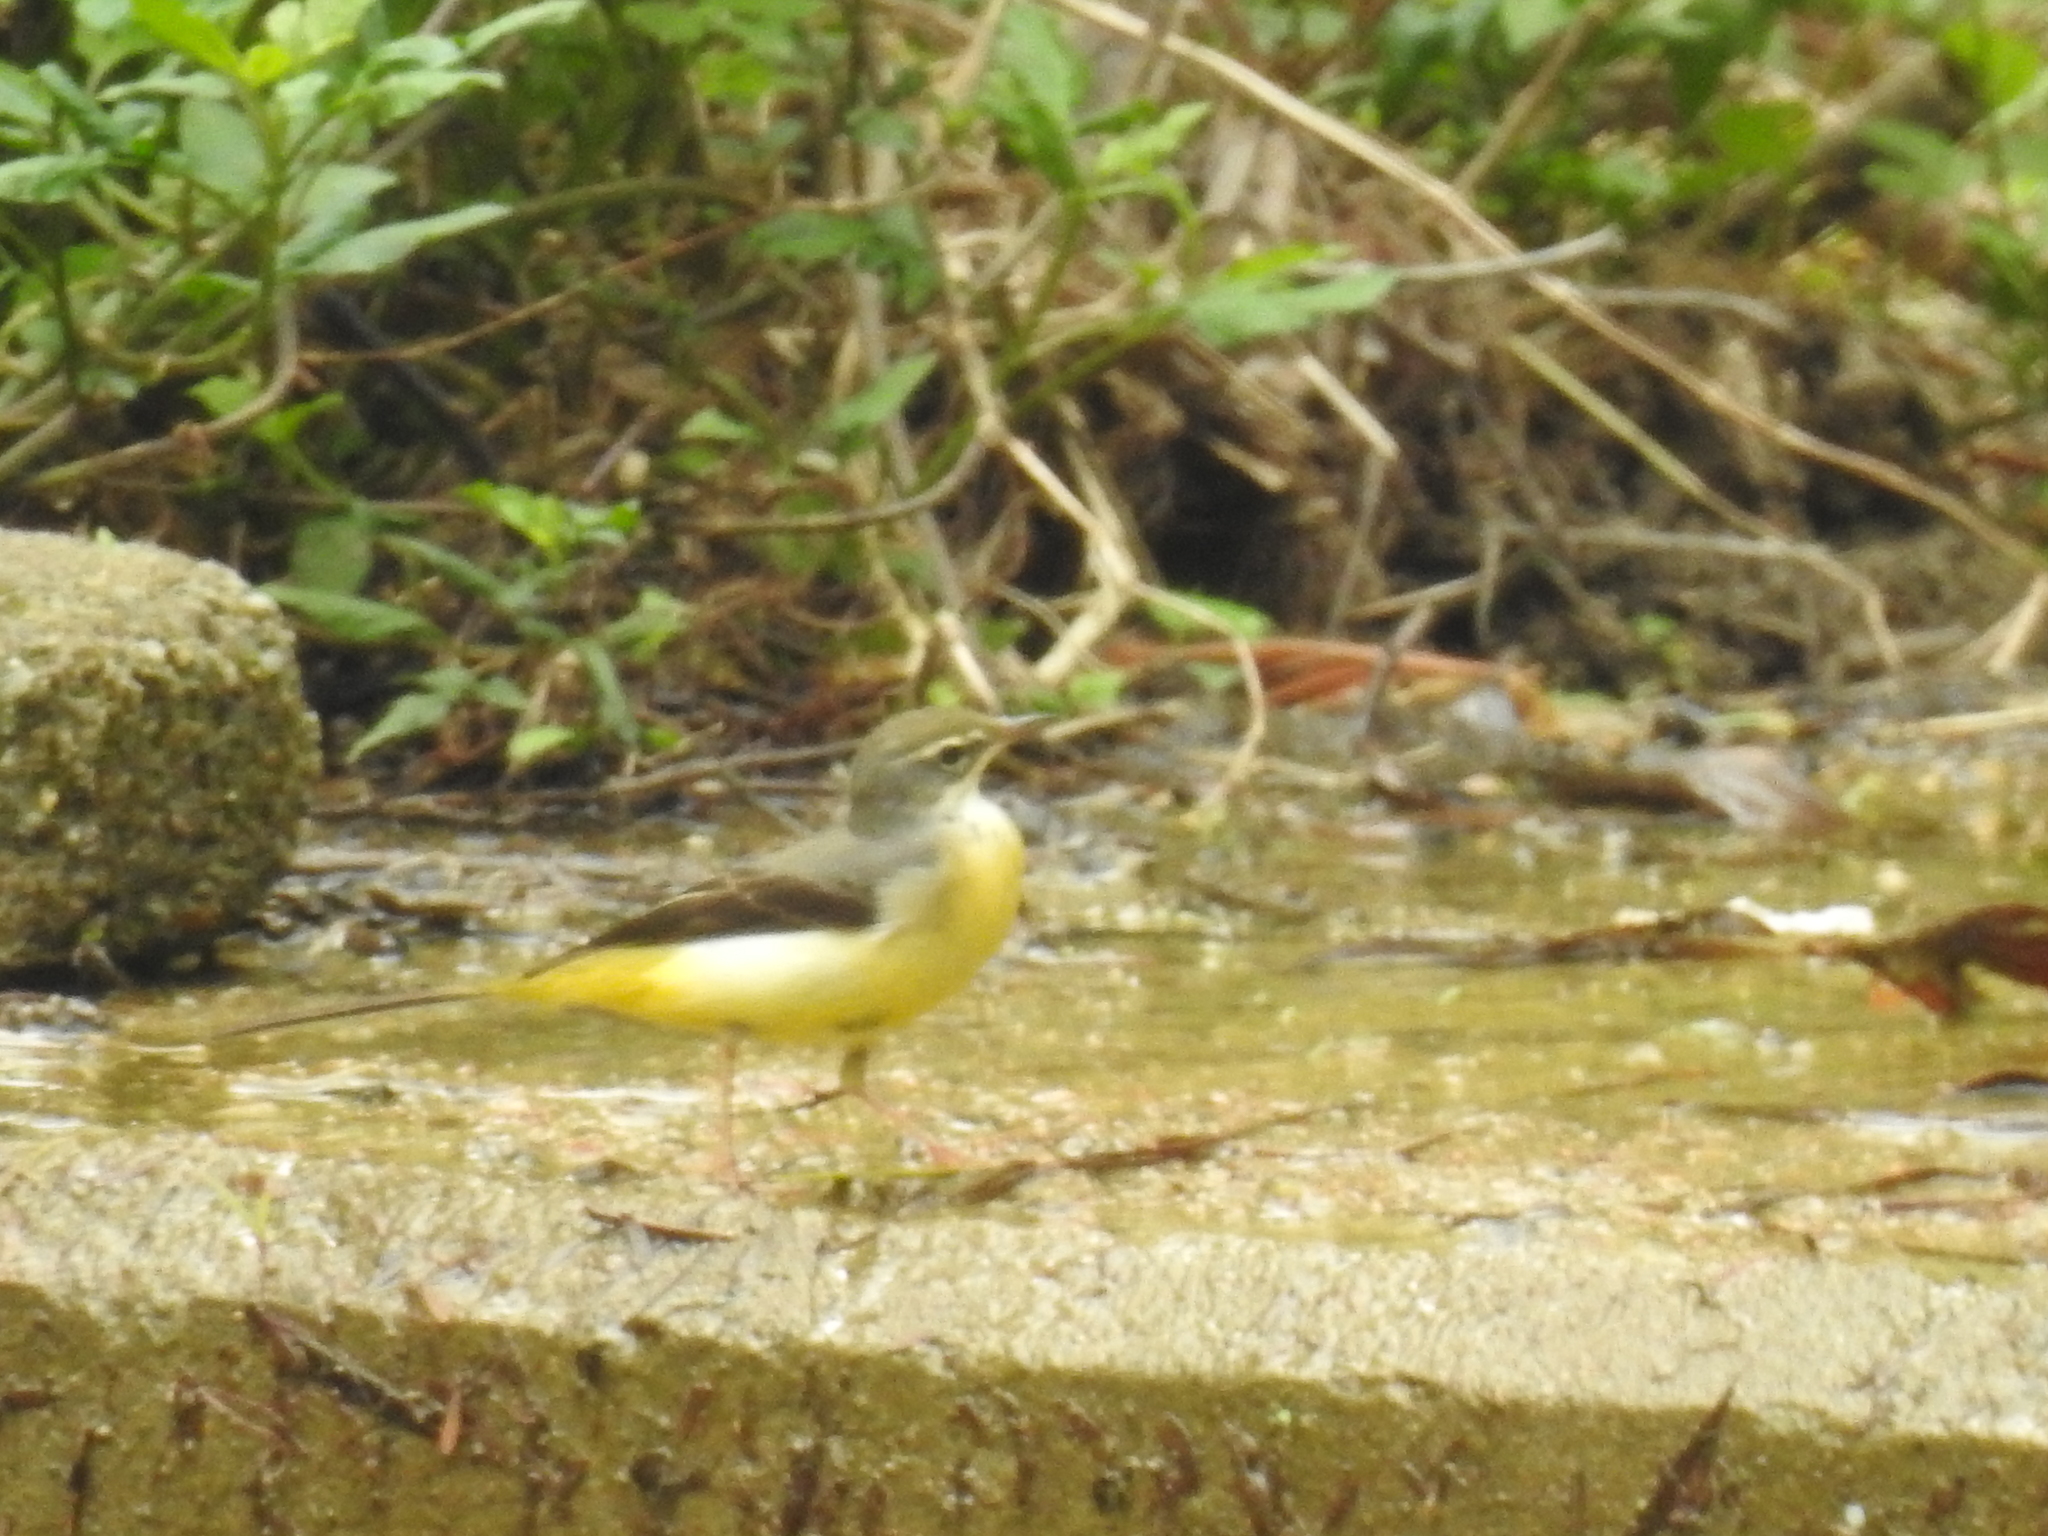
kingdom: Animalia
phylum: Chordata
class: Aves
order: Passeriformes
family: Motacillidae
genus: Motacilla
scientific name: Motacilla cinerea
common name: Grey wagtail
